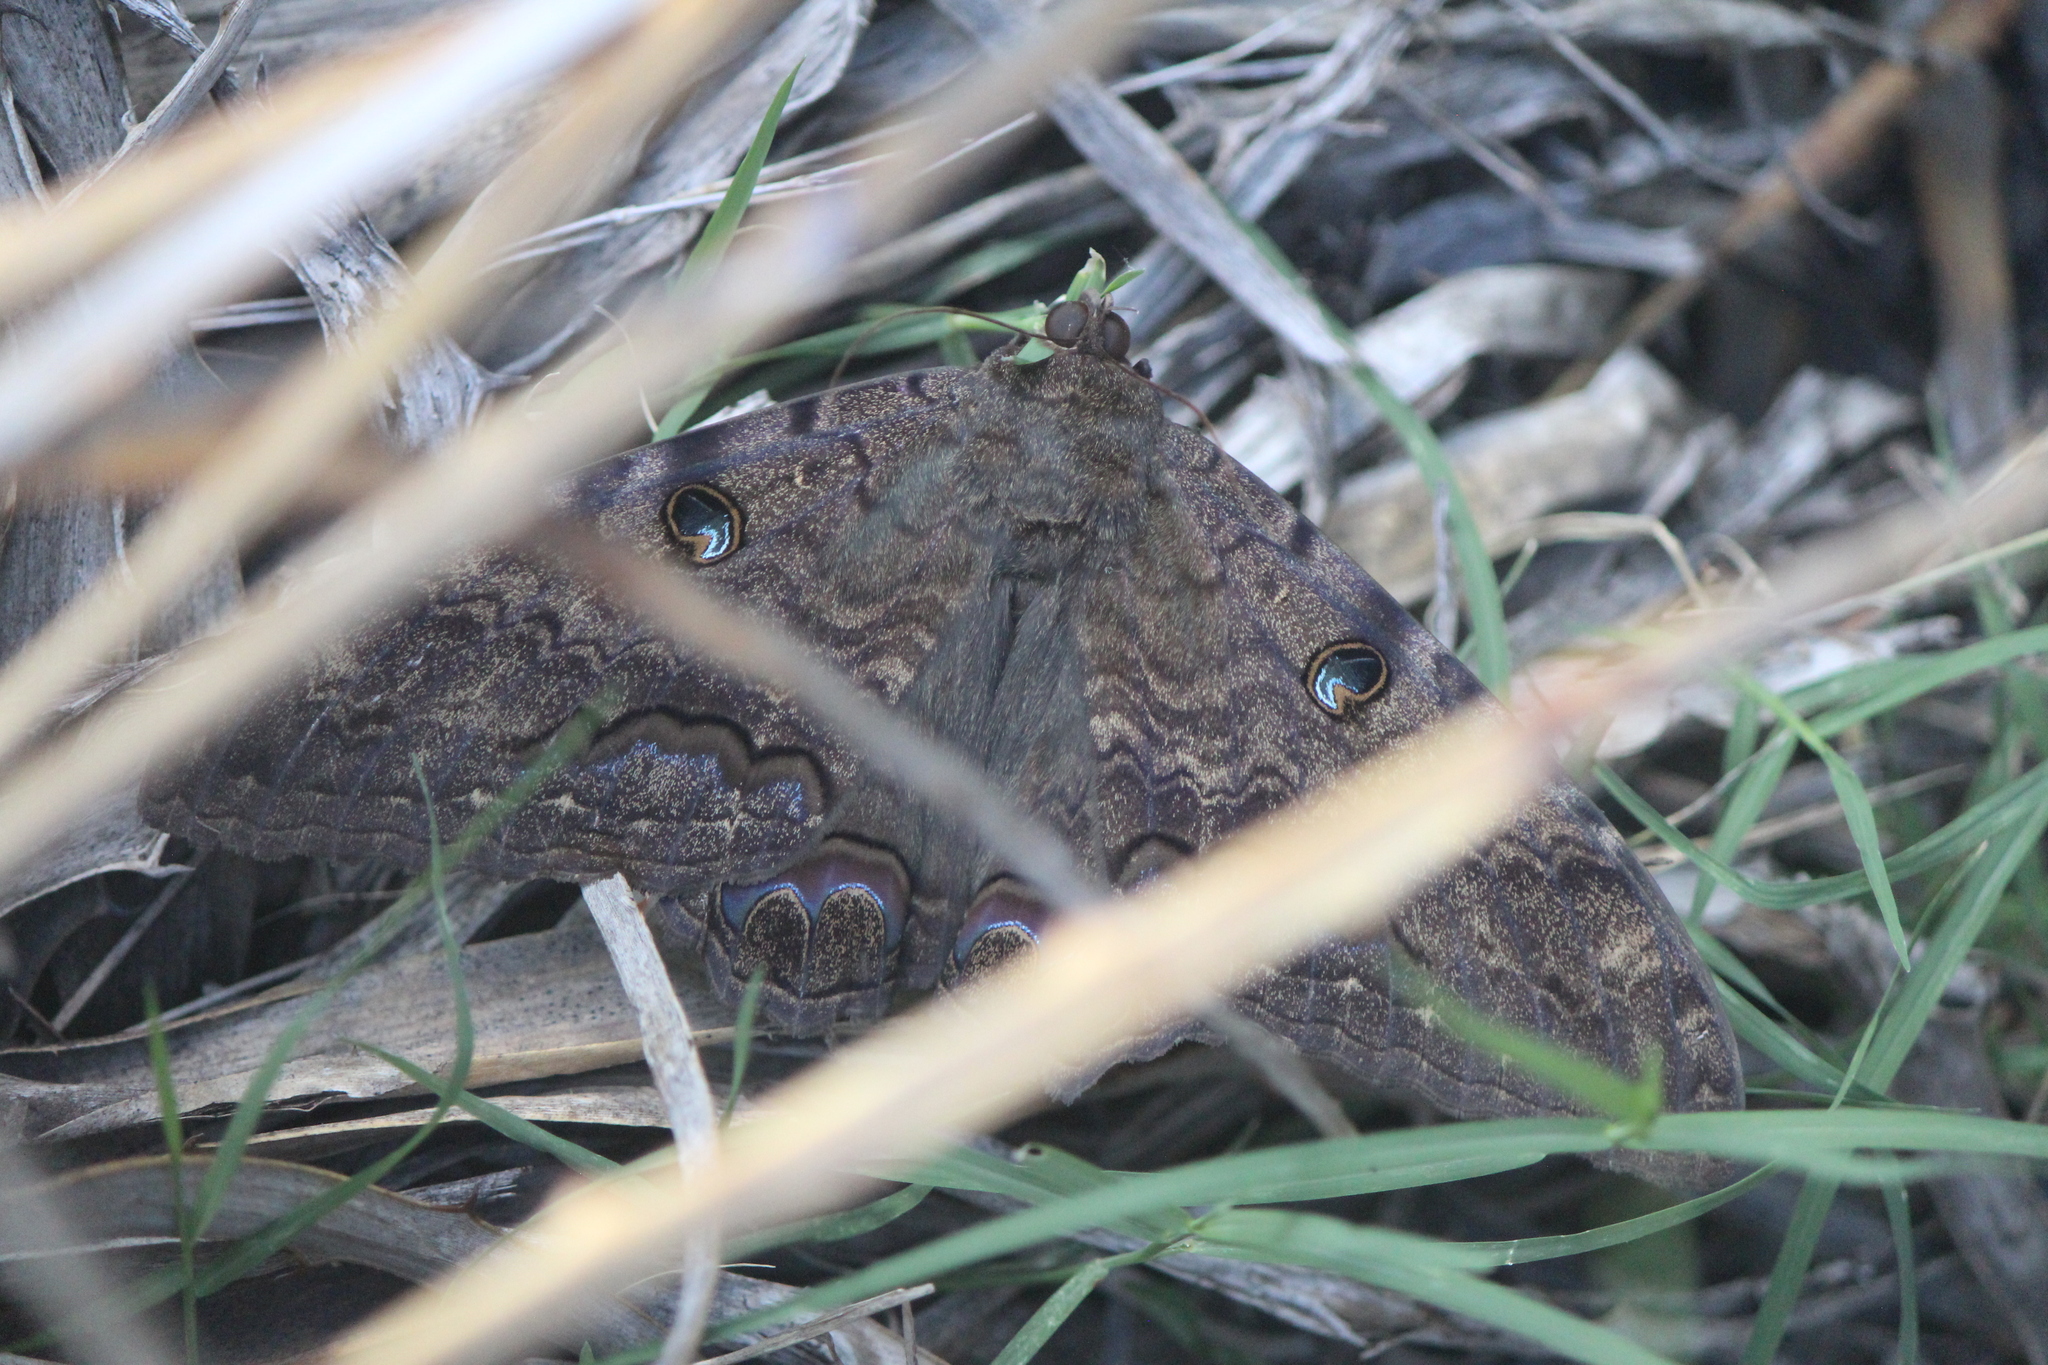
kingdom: Animalia
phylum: Arthropoda
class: Insecta
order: Lepidoptera
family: Erebidae
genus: Ascalapha
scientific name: Ascalapha odorata
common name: Black witch
